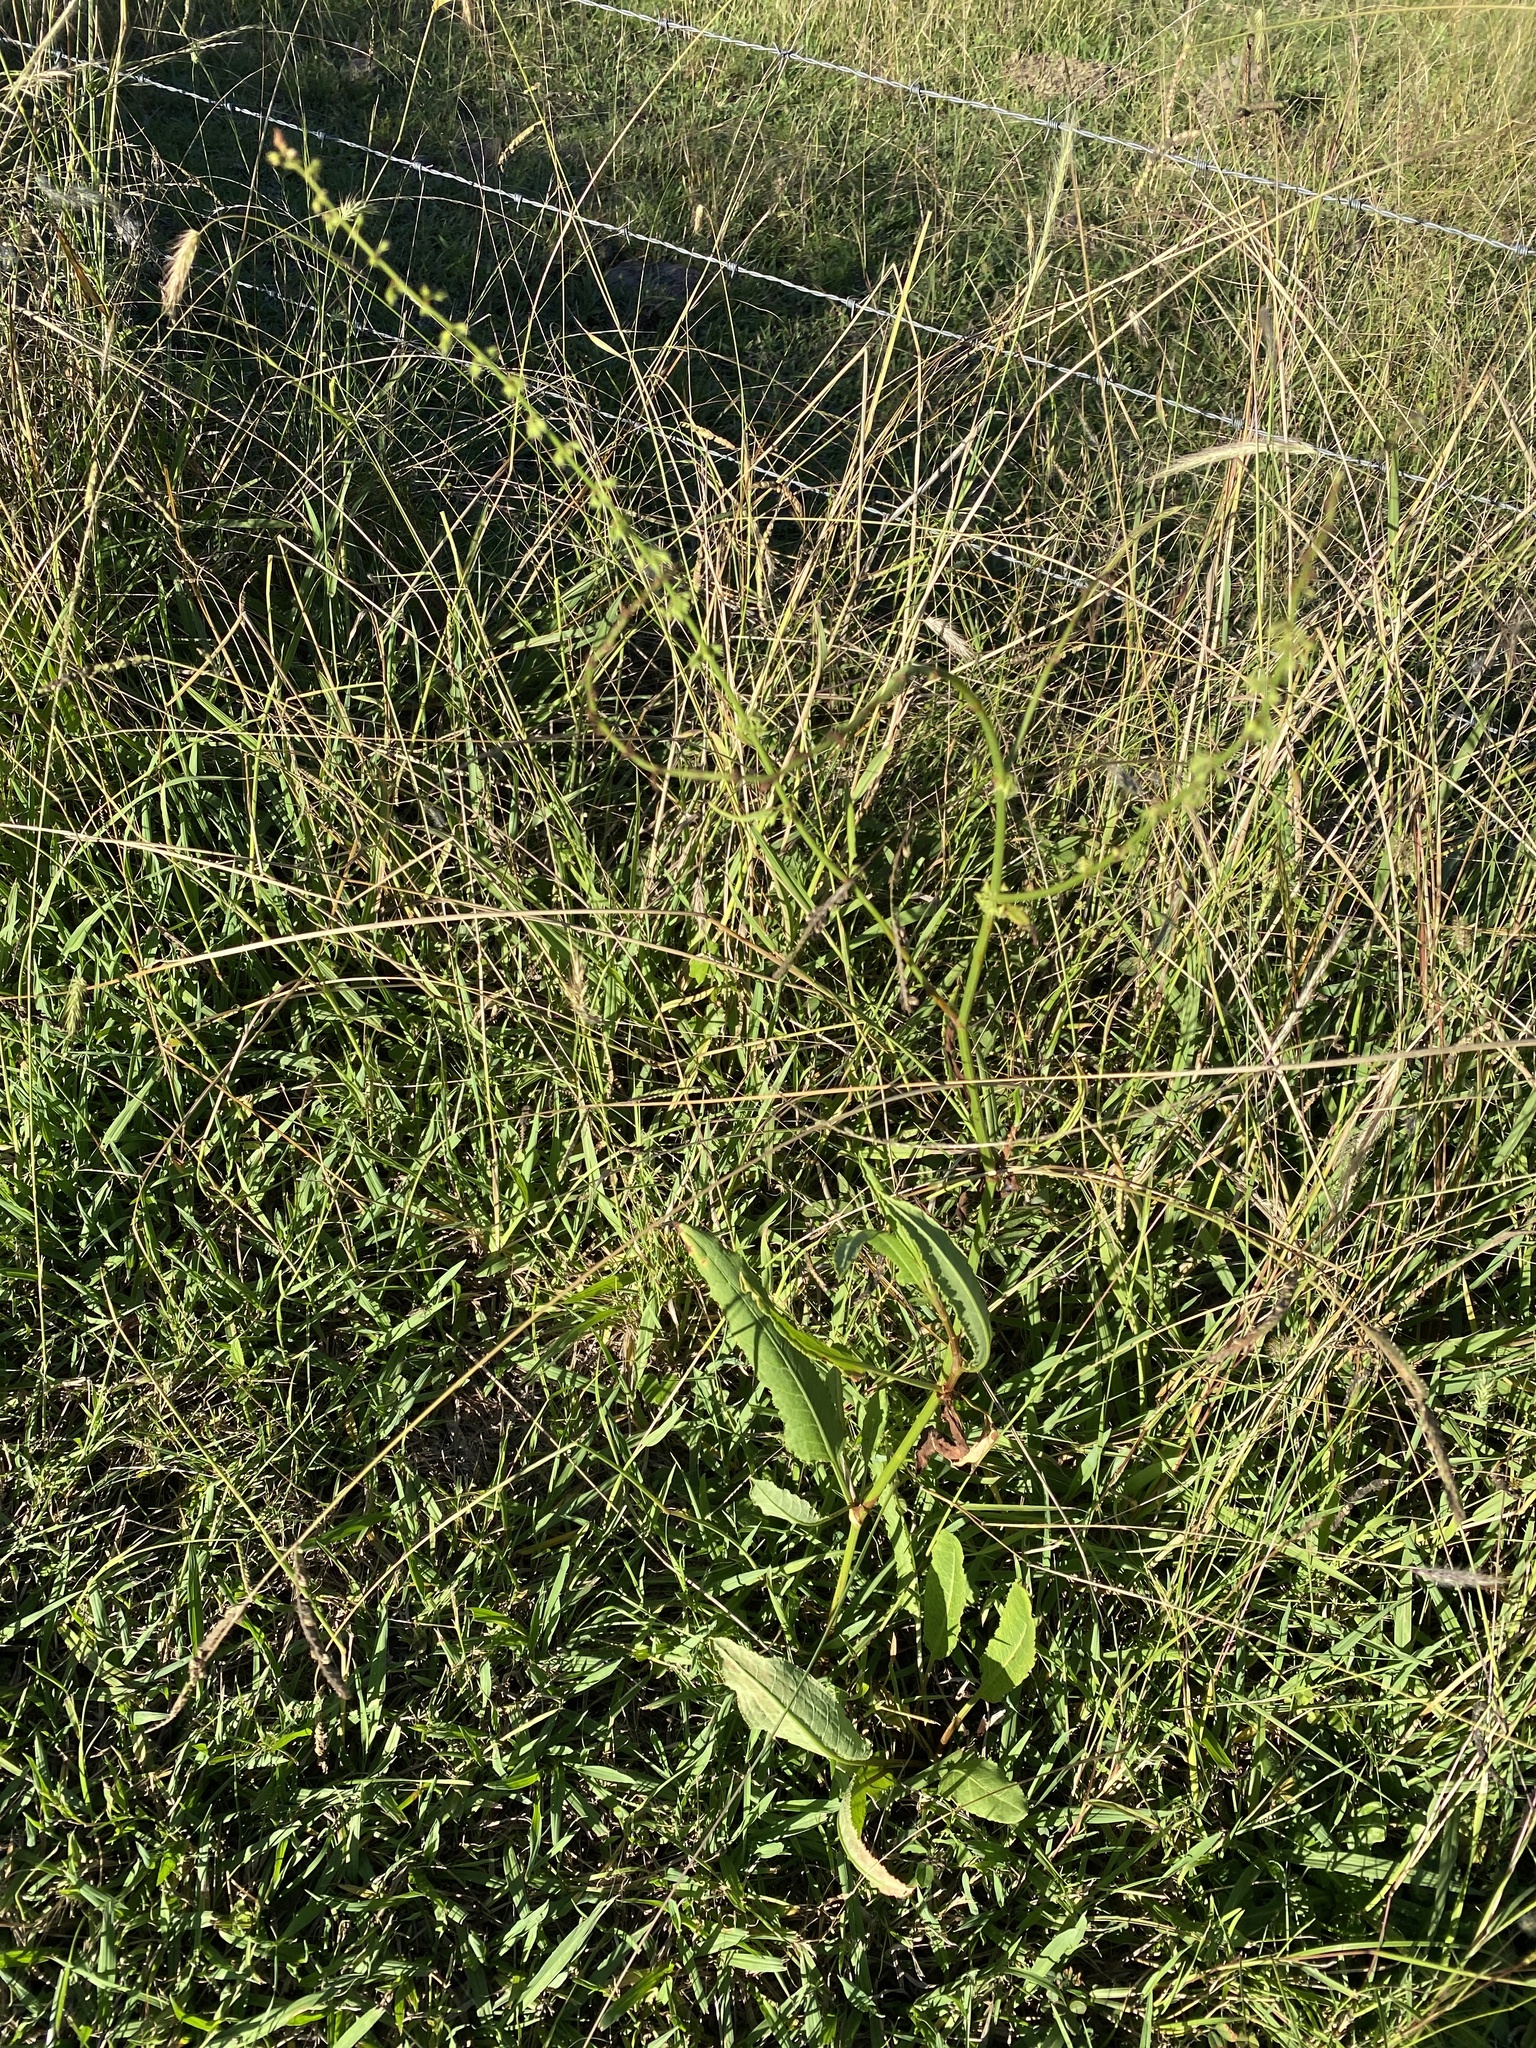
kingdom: Plantae
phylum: Tracheophyta
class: Magnoliopsida
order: Caryophyllales
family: Polygonaceae
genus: Rumex
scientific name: Rumex brownii
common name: Hooked dock
